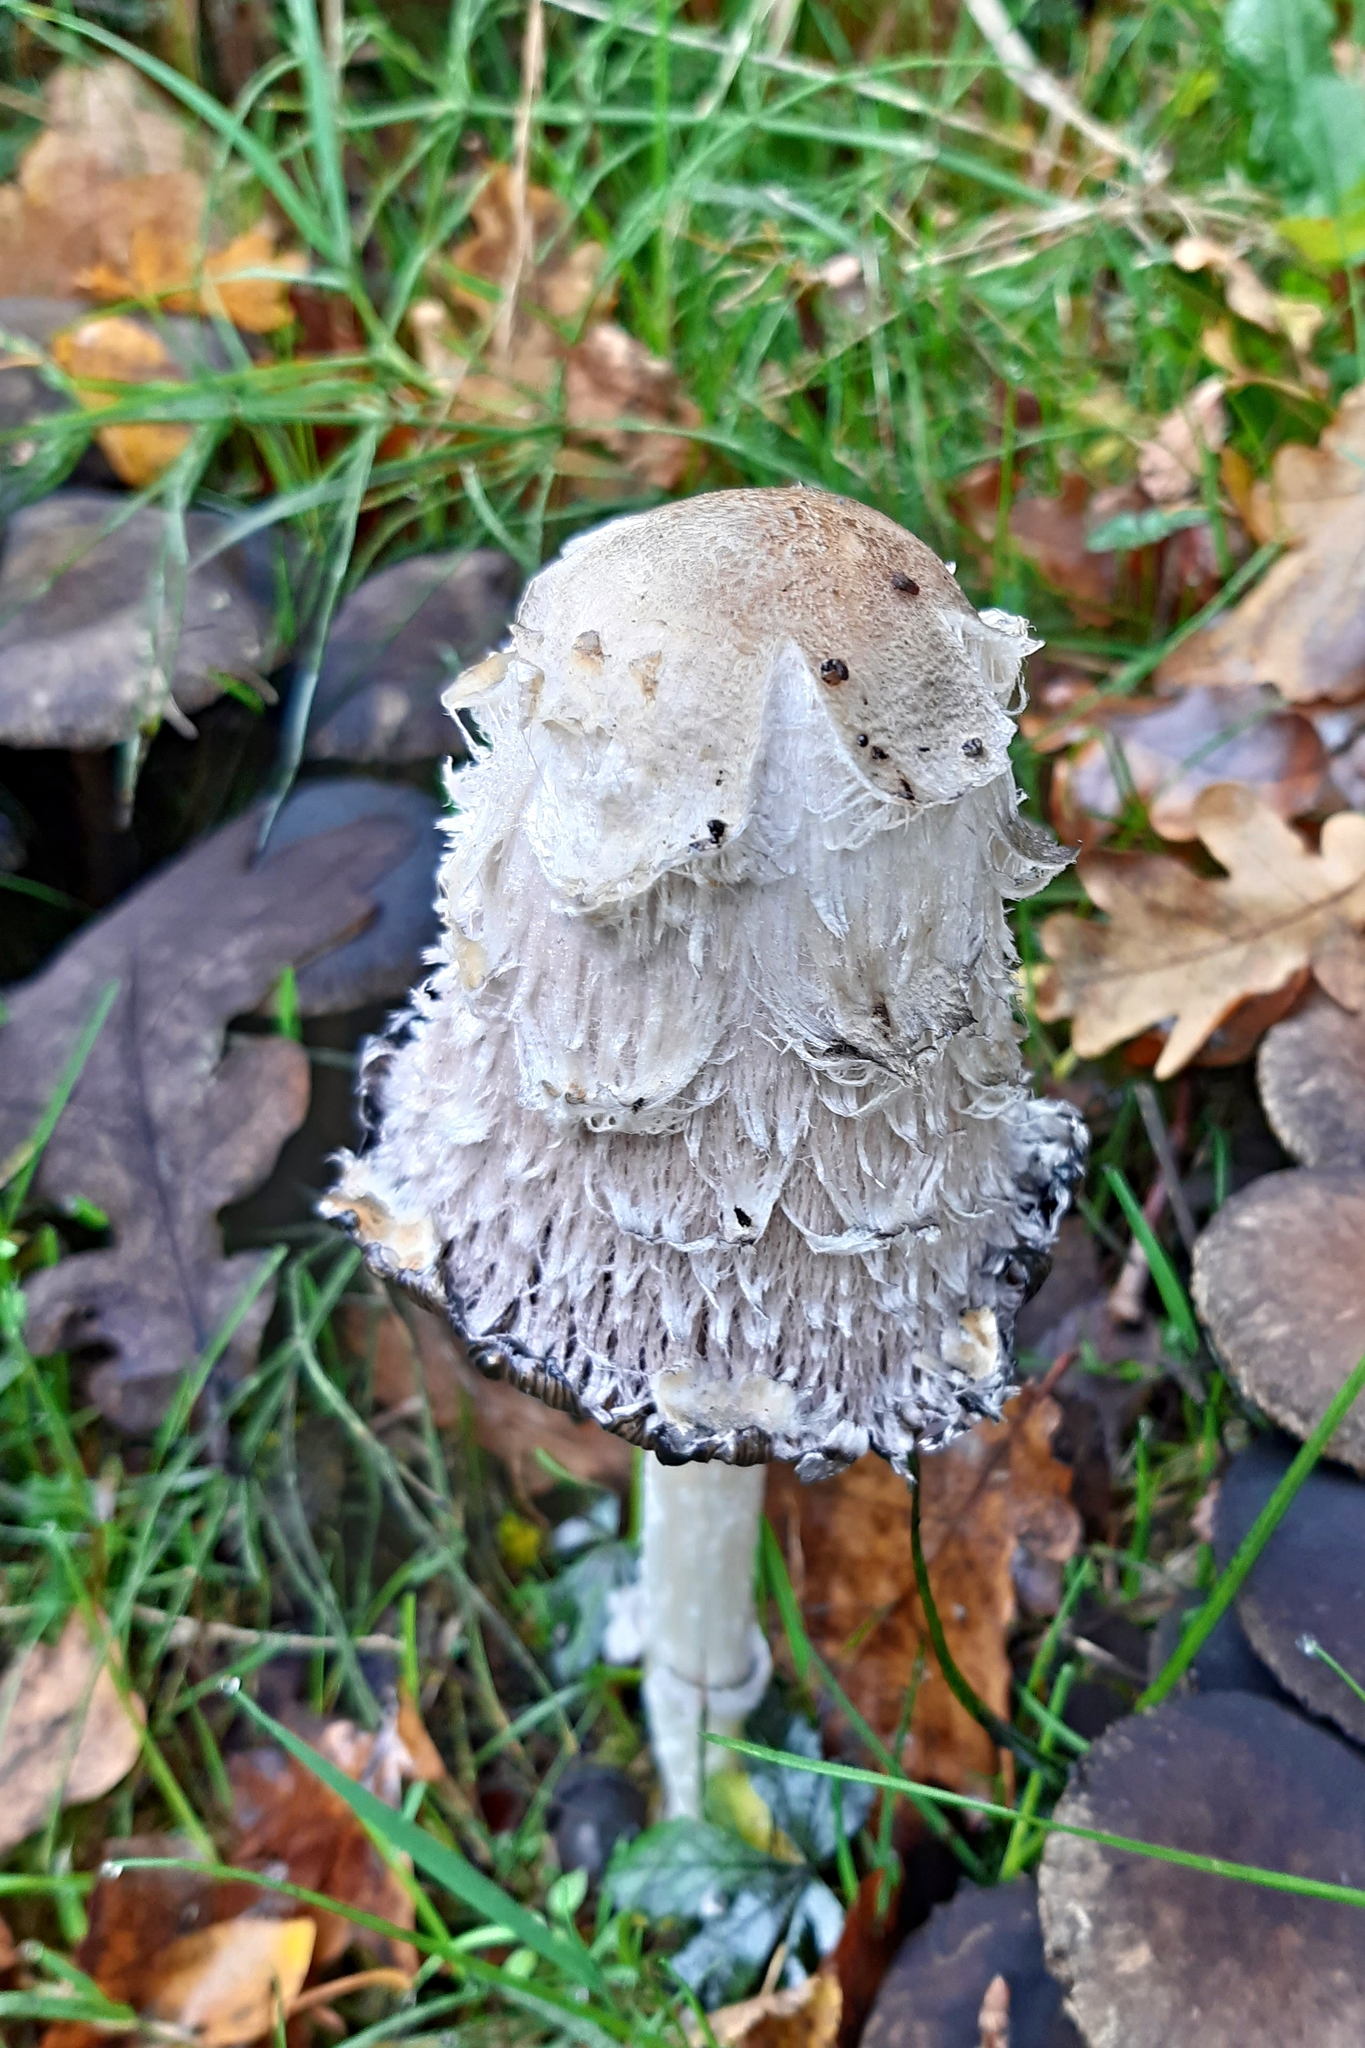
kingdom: Fungi
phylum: Basidiomycota
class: Agaricomycetes
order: Agaricales
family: Agaricaceae
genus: Coprinus
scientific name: Coprinus comatus
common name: Lawyer's wig
